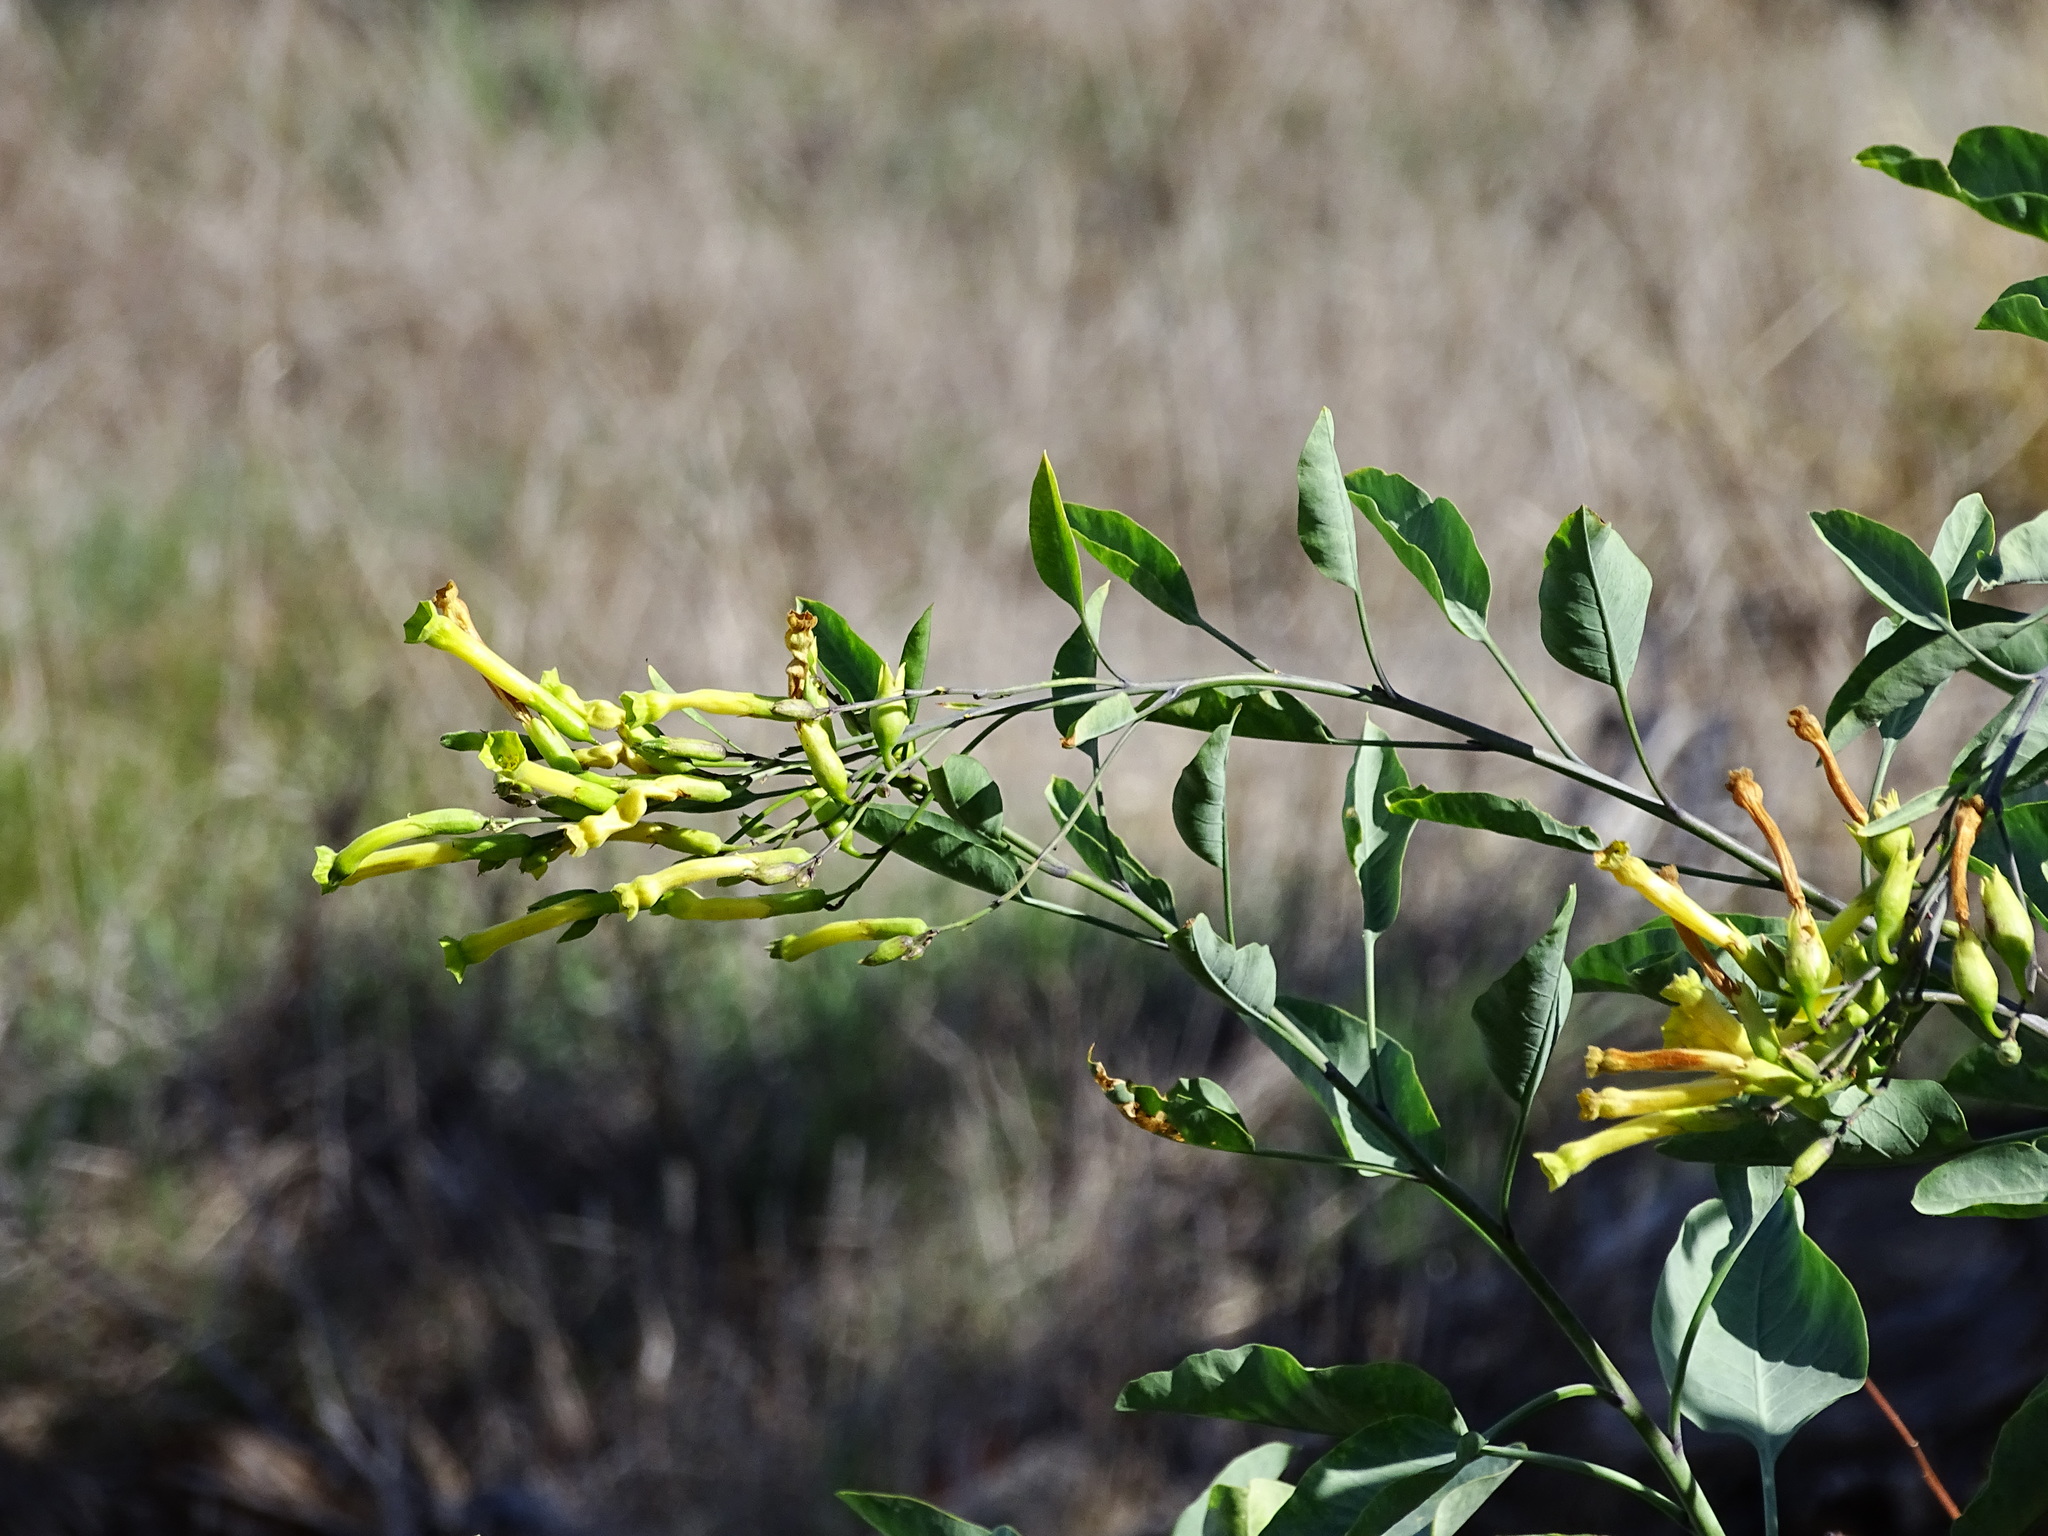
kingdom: Plantae
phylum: Tracheophyta
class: Magnoliopsida
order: Solanales
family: Solanaceae
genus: Nicotiana
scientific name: Nicotiana glauca
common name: Tree tobacco
